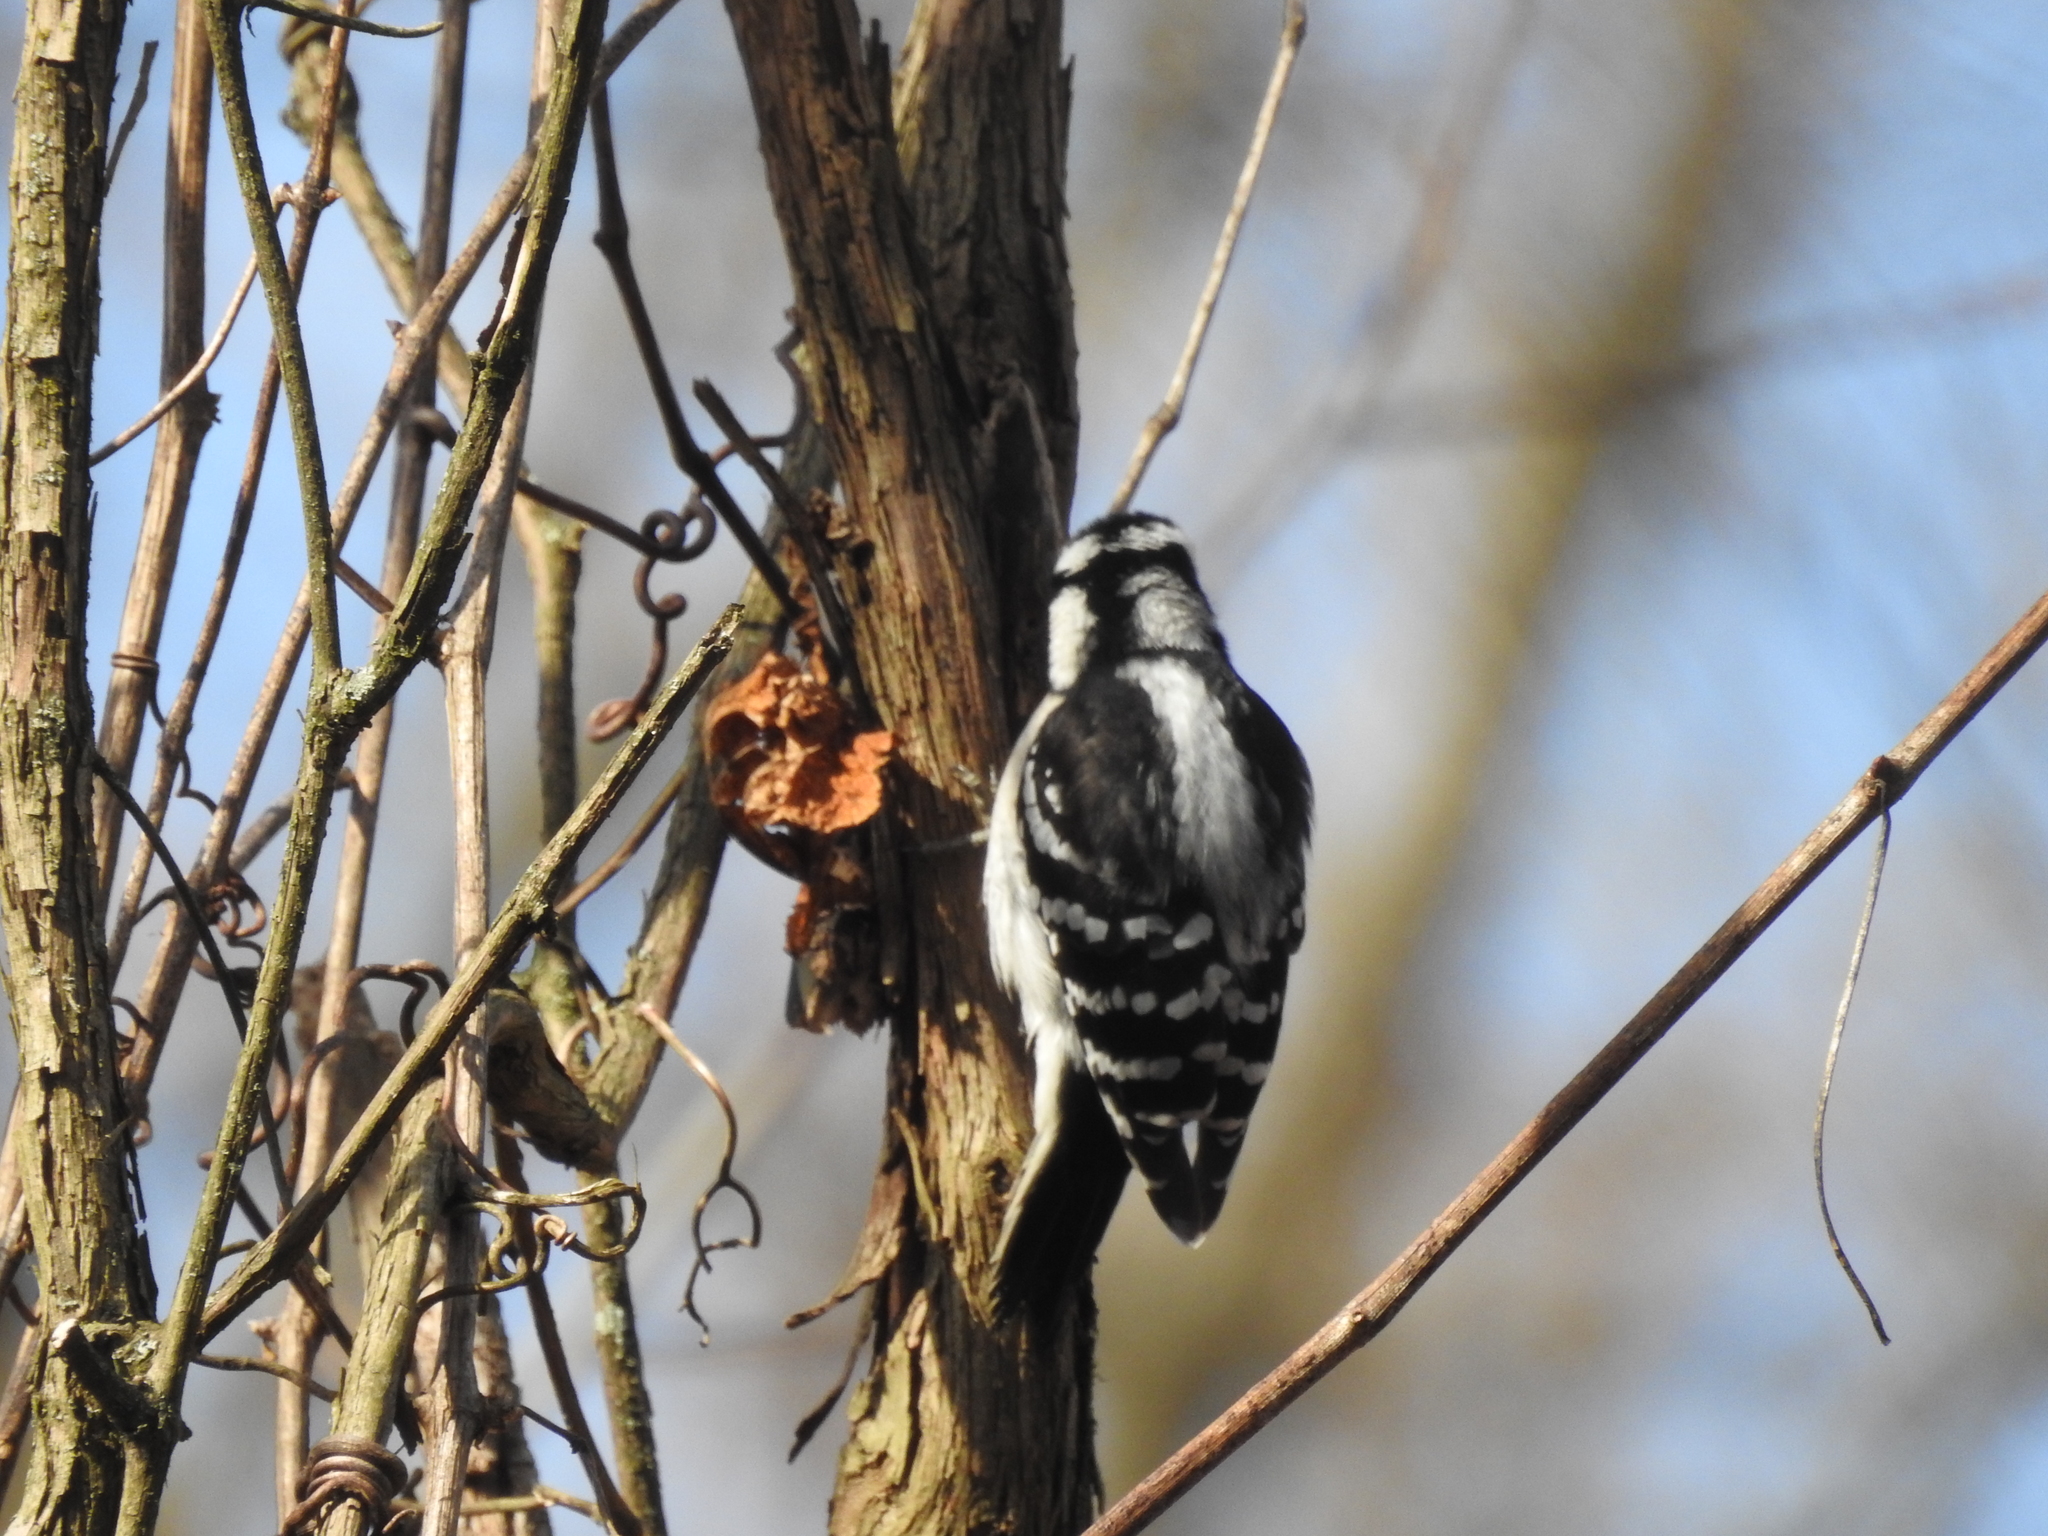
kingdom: Animalia
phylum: Chordata
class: Aves
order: Piciformes
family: Picidae
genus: Dryobates
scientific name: Dryobates pubescens
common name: Downy woodpecker
